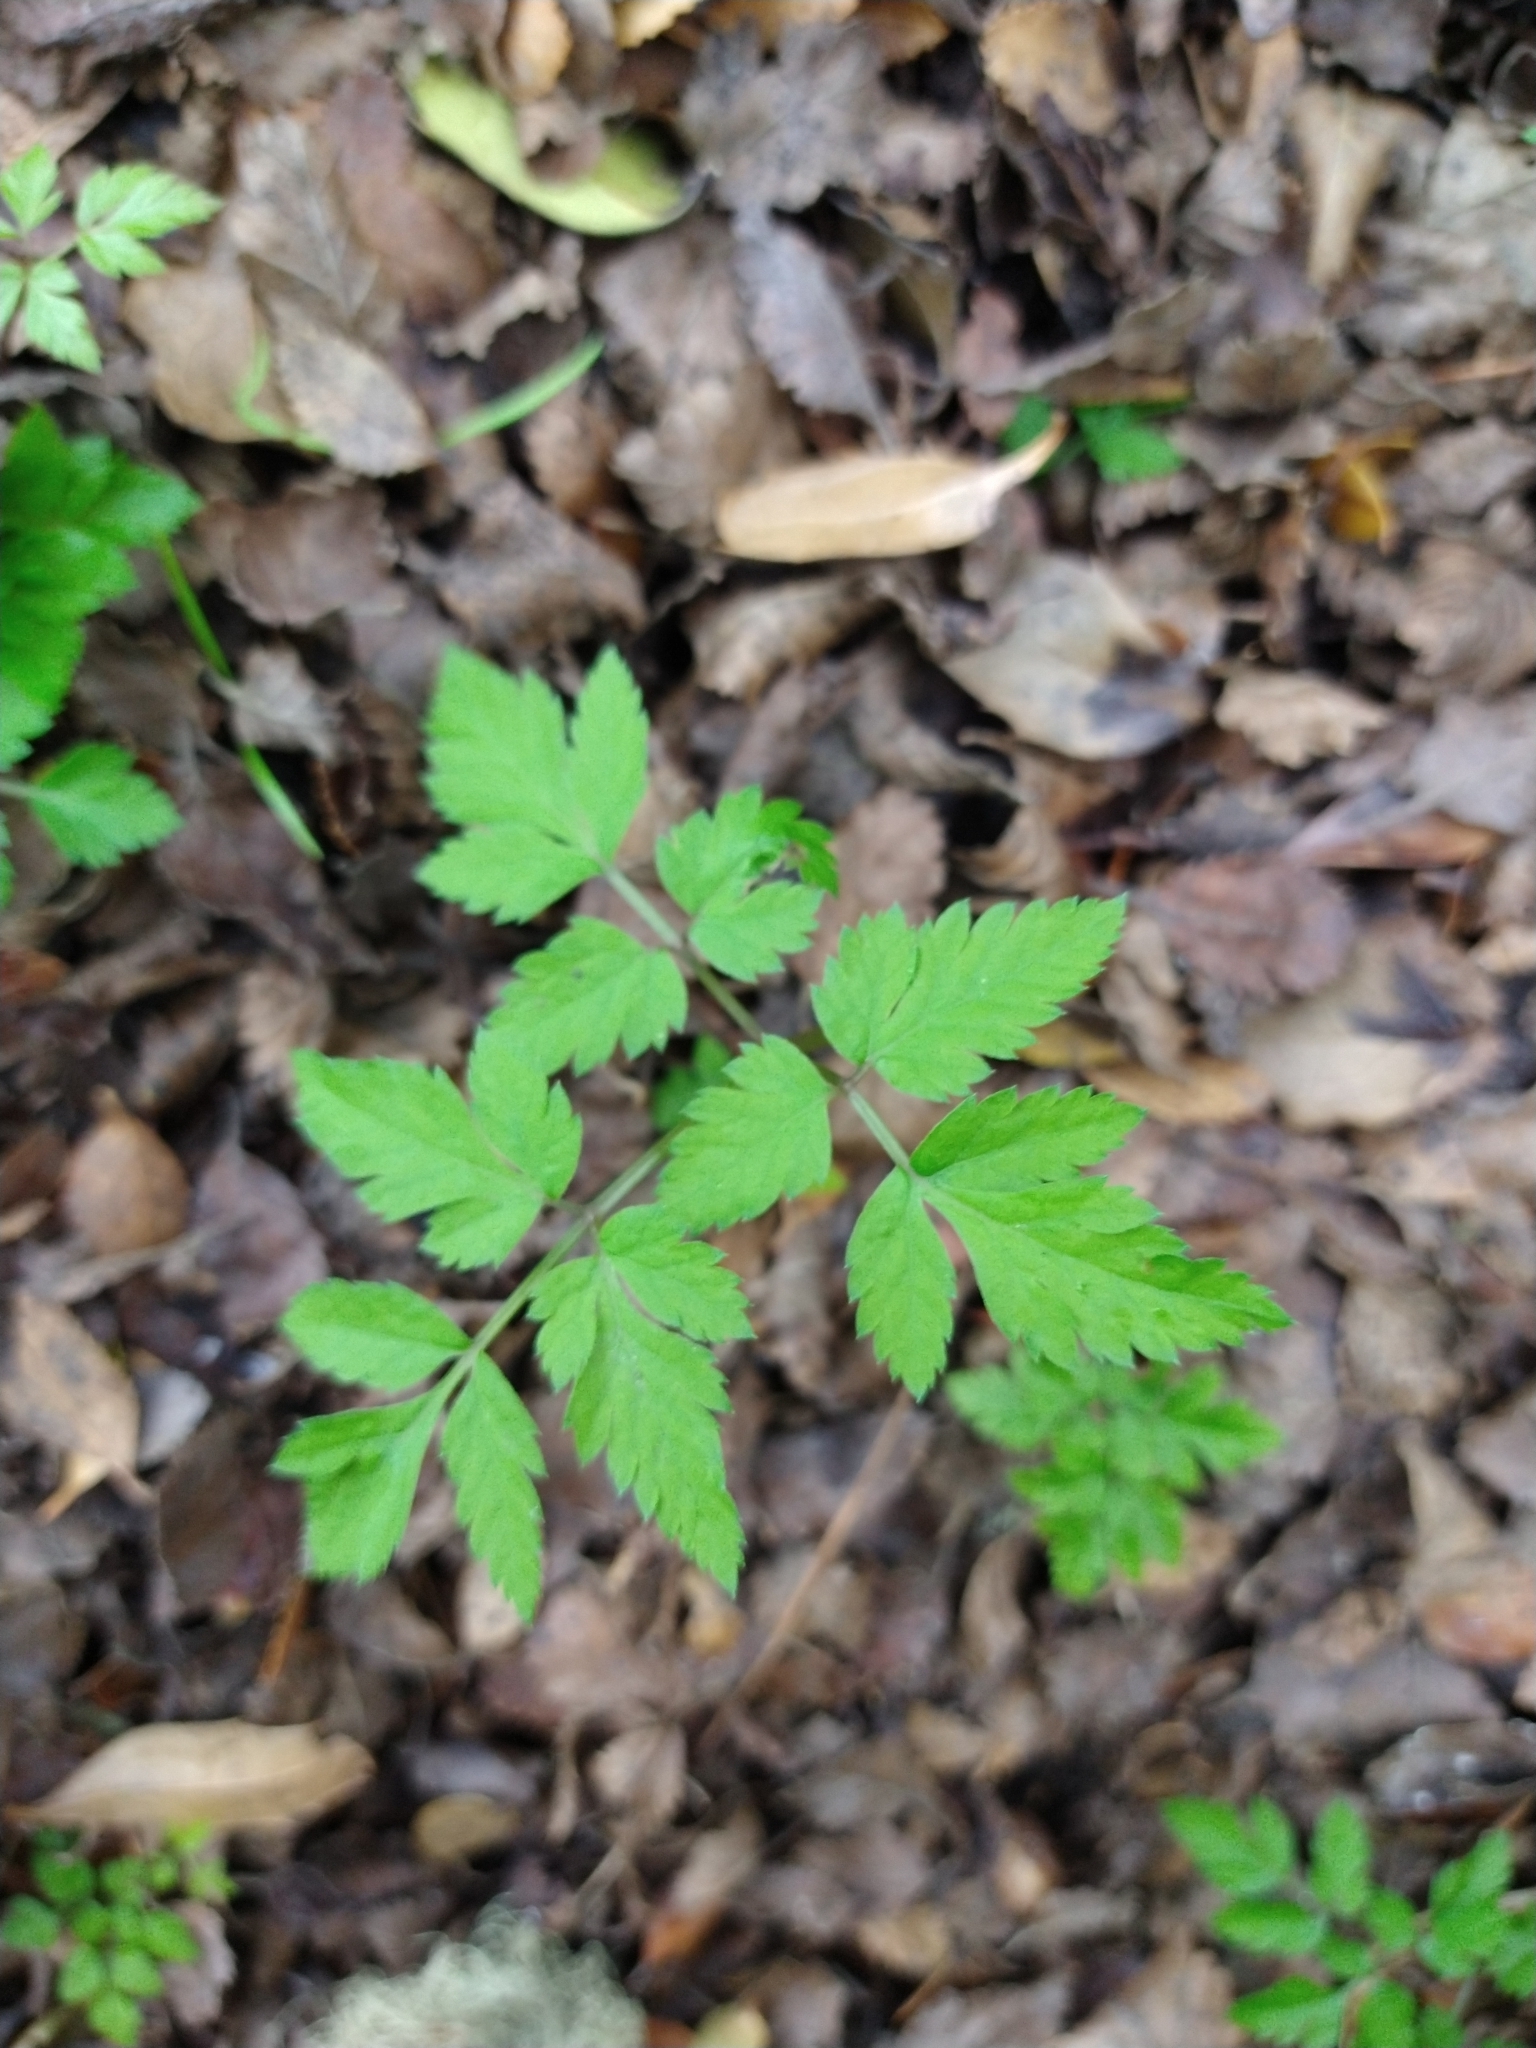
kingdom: Plantae
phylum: Tracheophyta
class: Magnoliopsida
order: Apiales
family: Apiaceae
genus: Osmorhiza
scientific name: Osmorhiza berteroi
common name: Mountain sweet cicely
